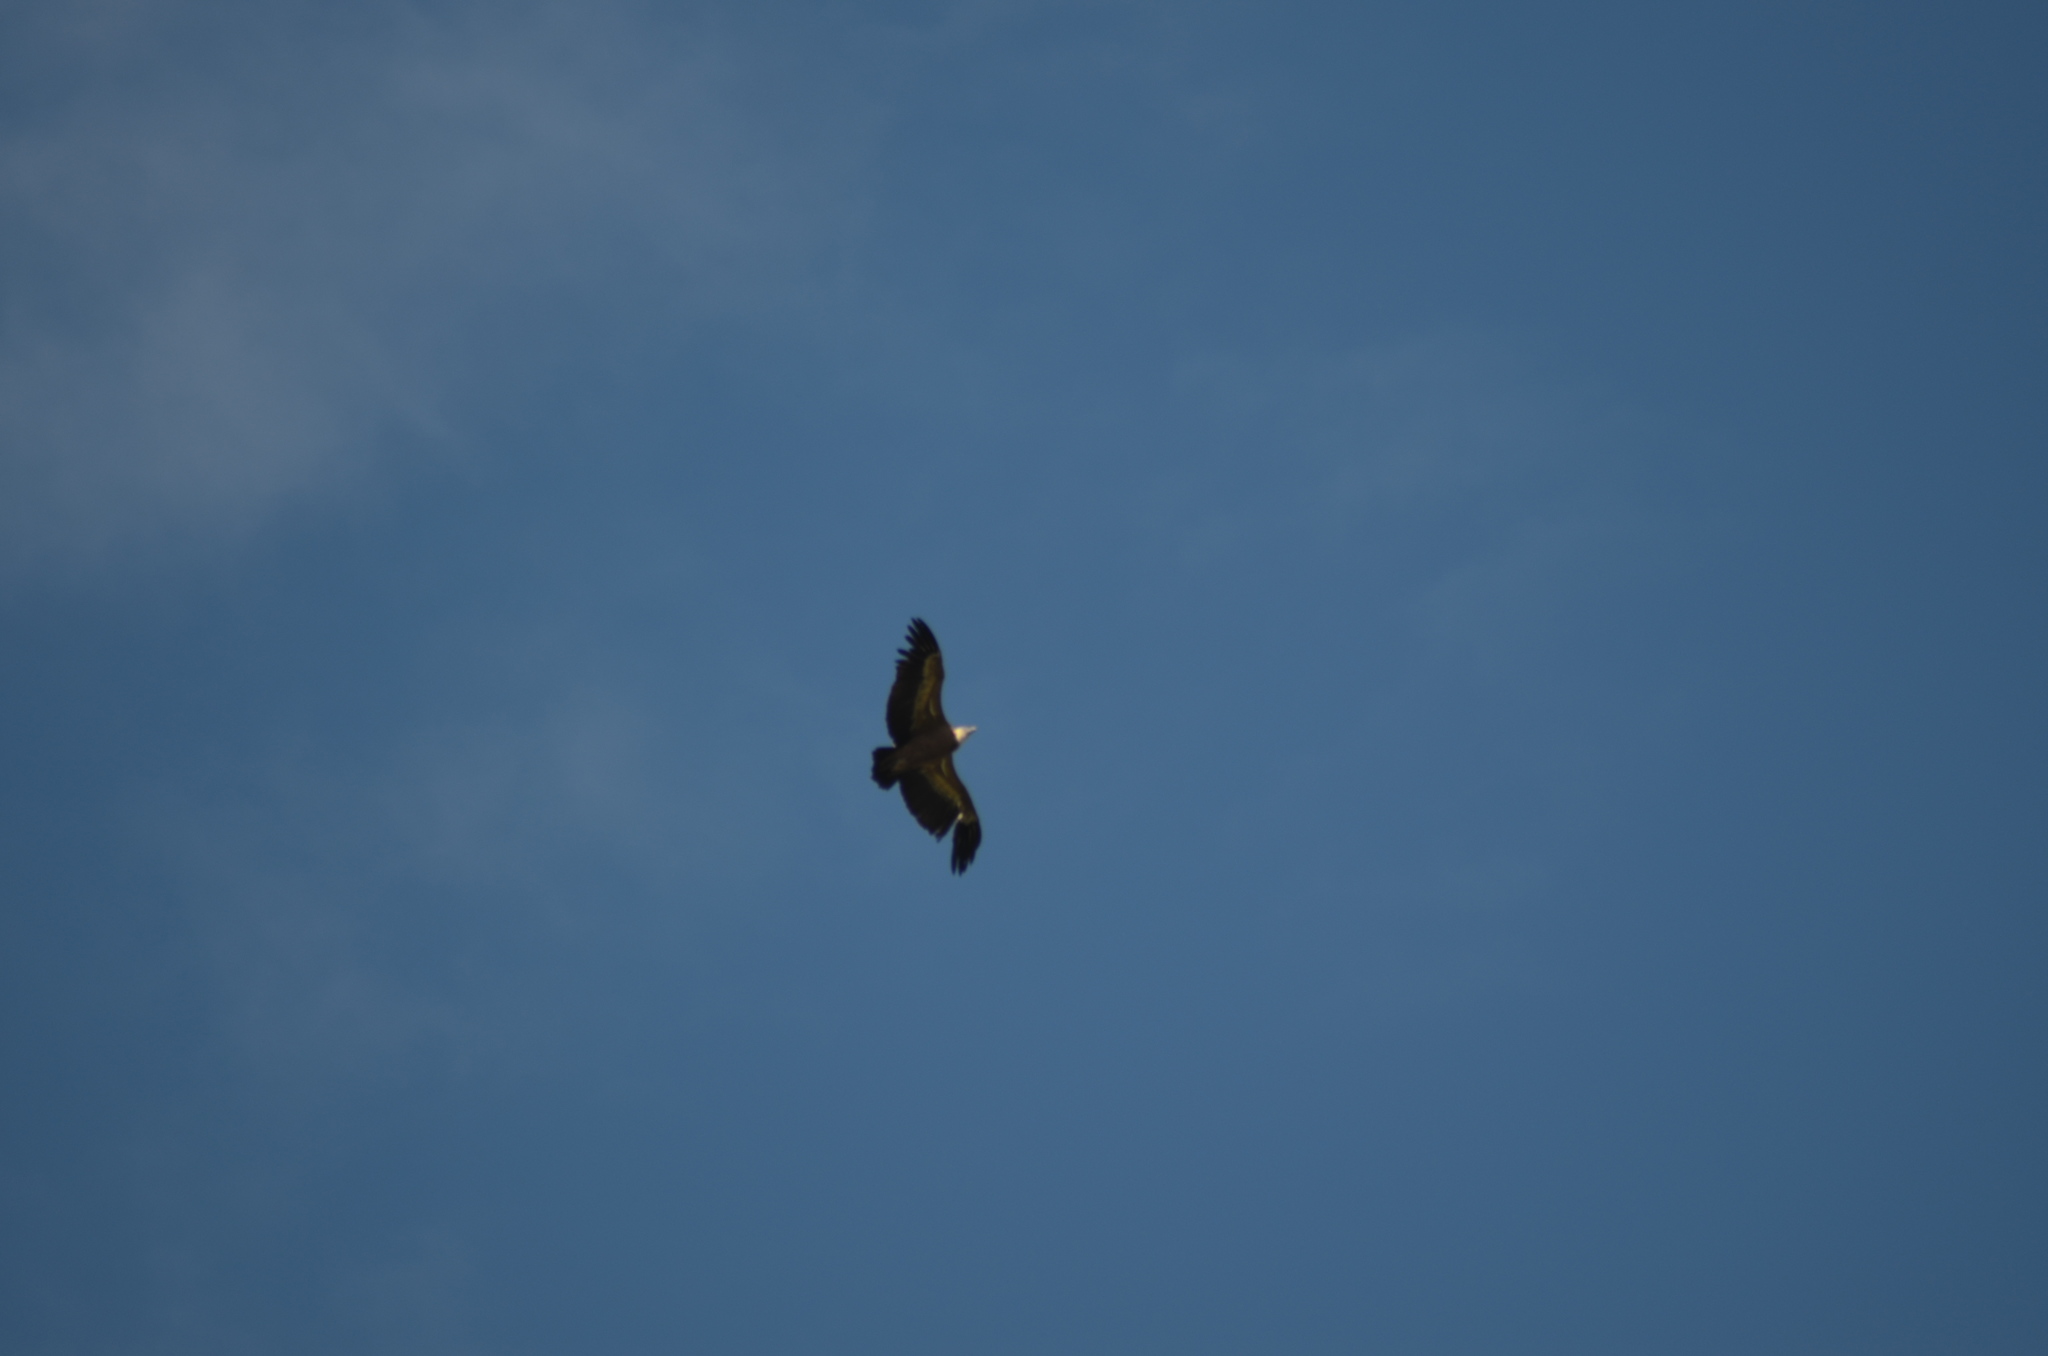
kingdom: Animalia
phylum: Chordata
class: Aves
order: Accipitriformes
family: Accipitridae
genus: Gyps
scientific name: Gyps fulvus
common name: Griffon vulture
